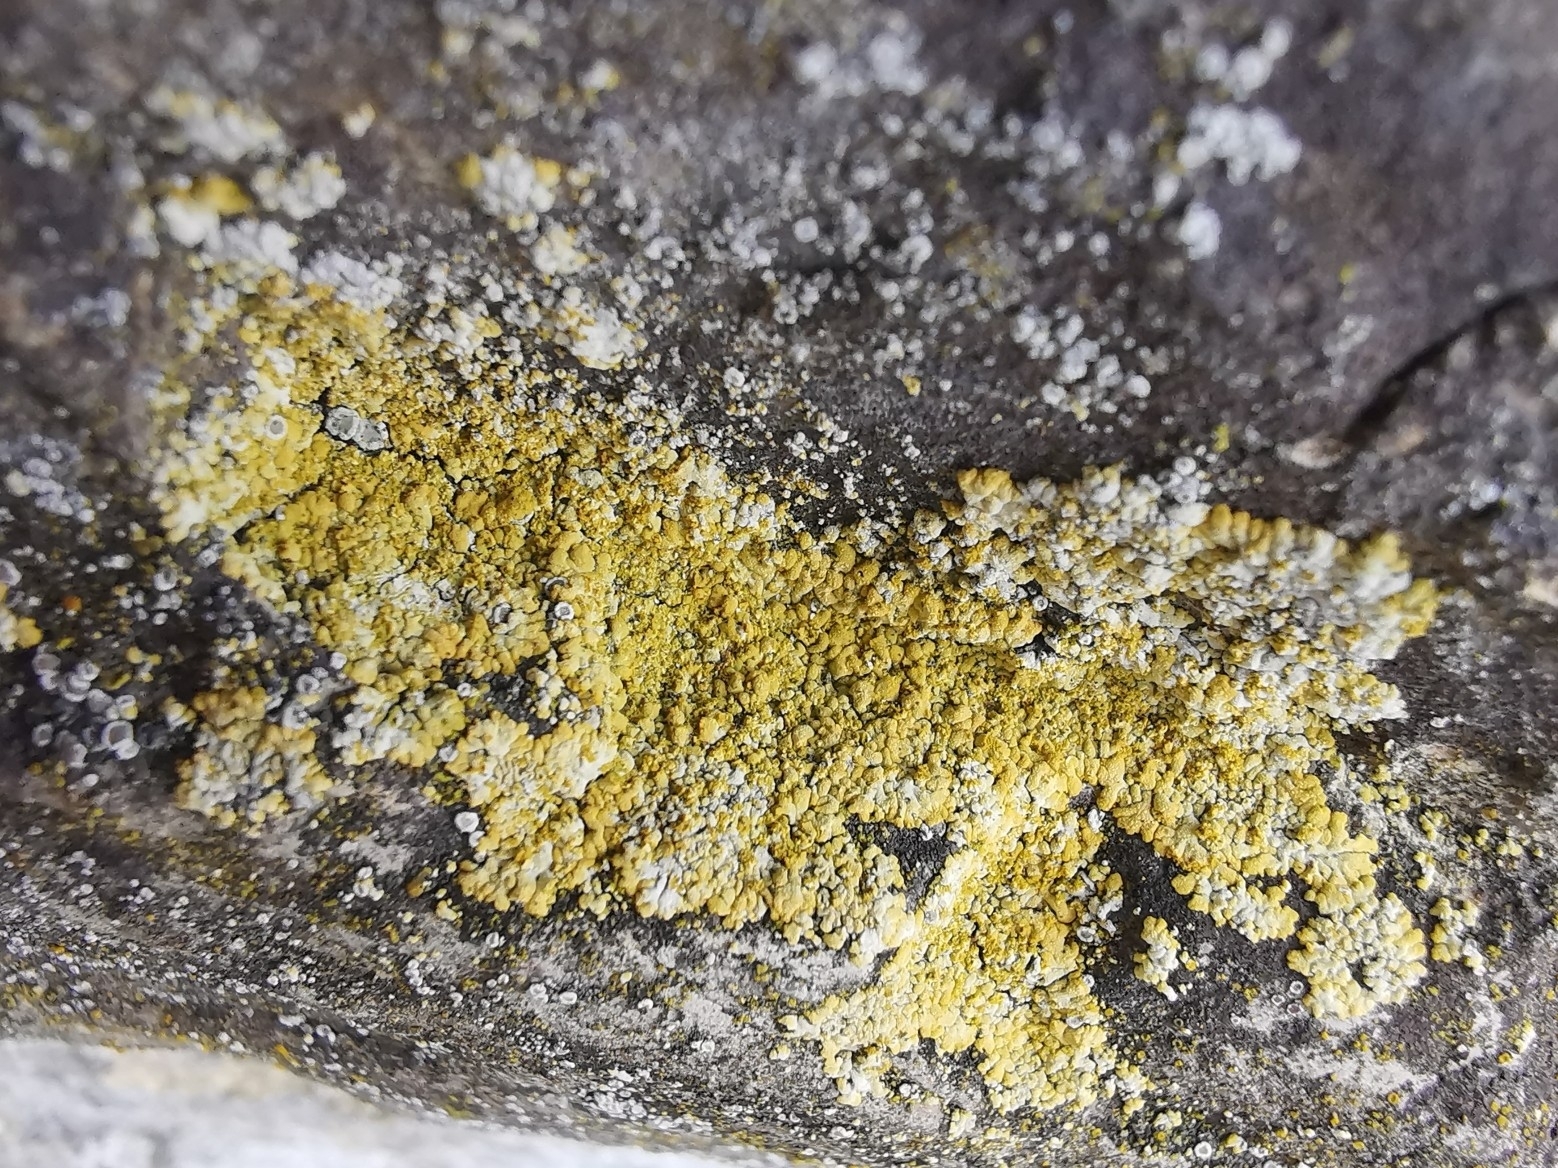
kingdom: Fungi
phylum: Ascomycota
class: Lecanoromycetes
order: Teloschistales
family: Teloschistaceae
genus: Calogaya
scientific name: Calogaya decipiens
